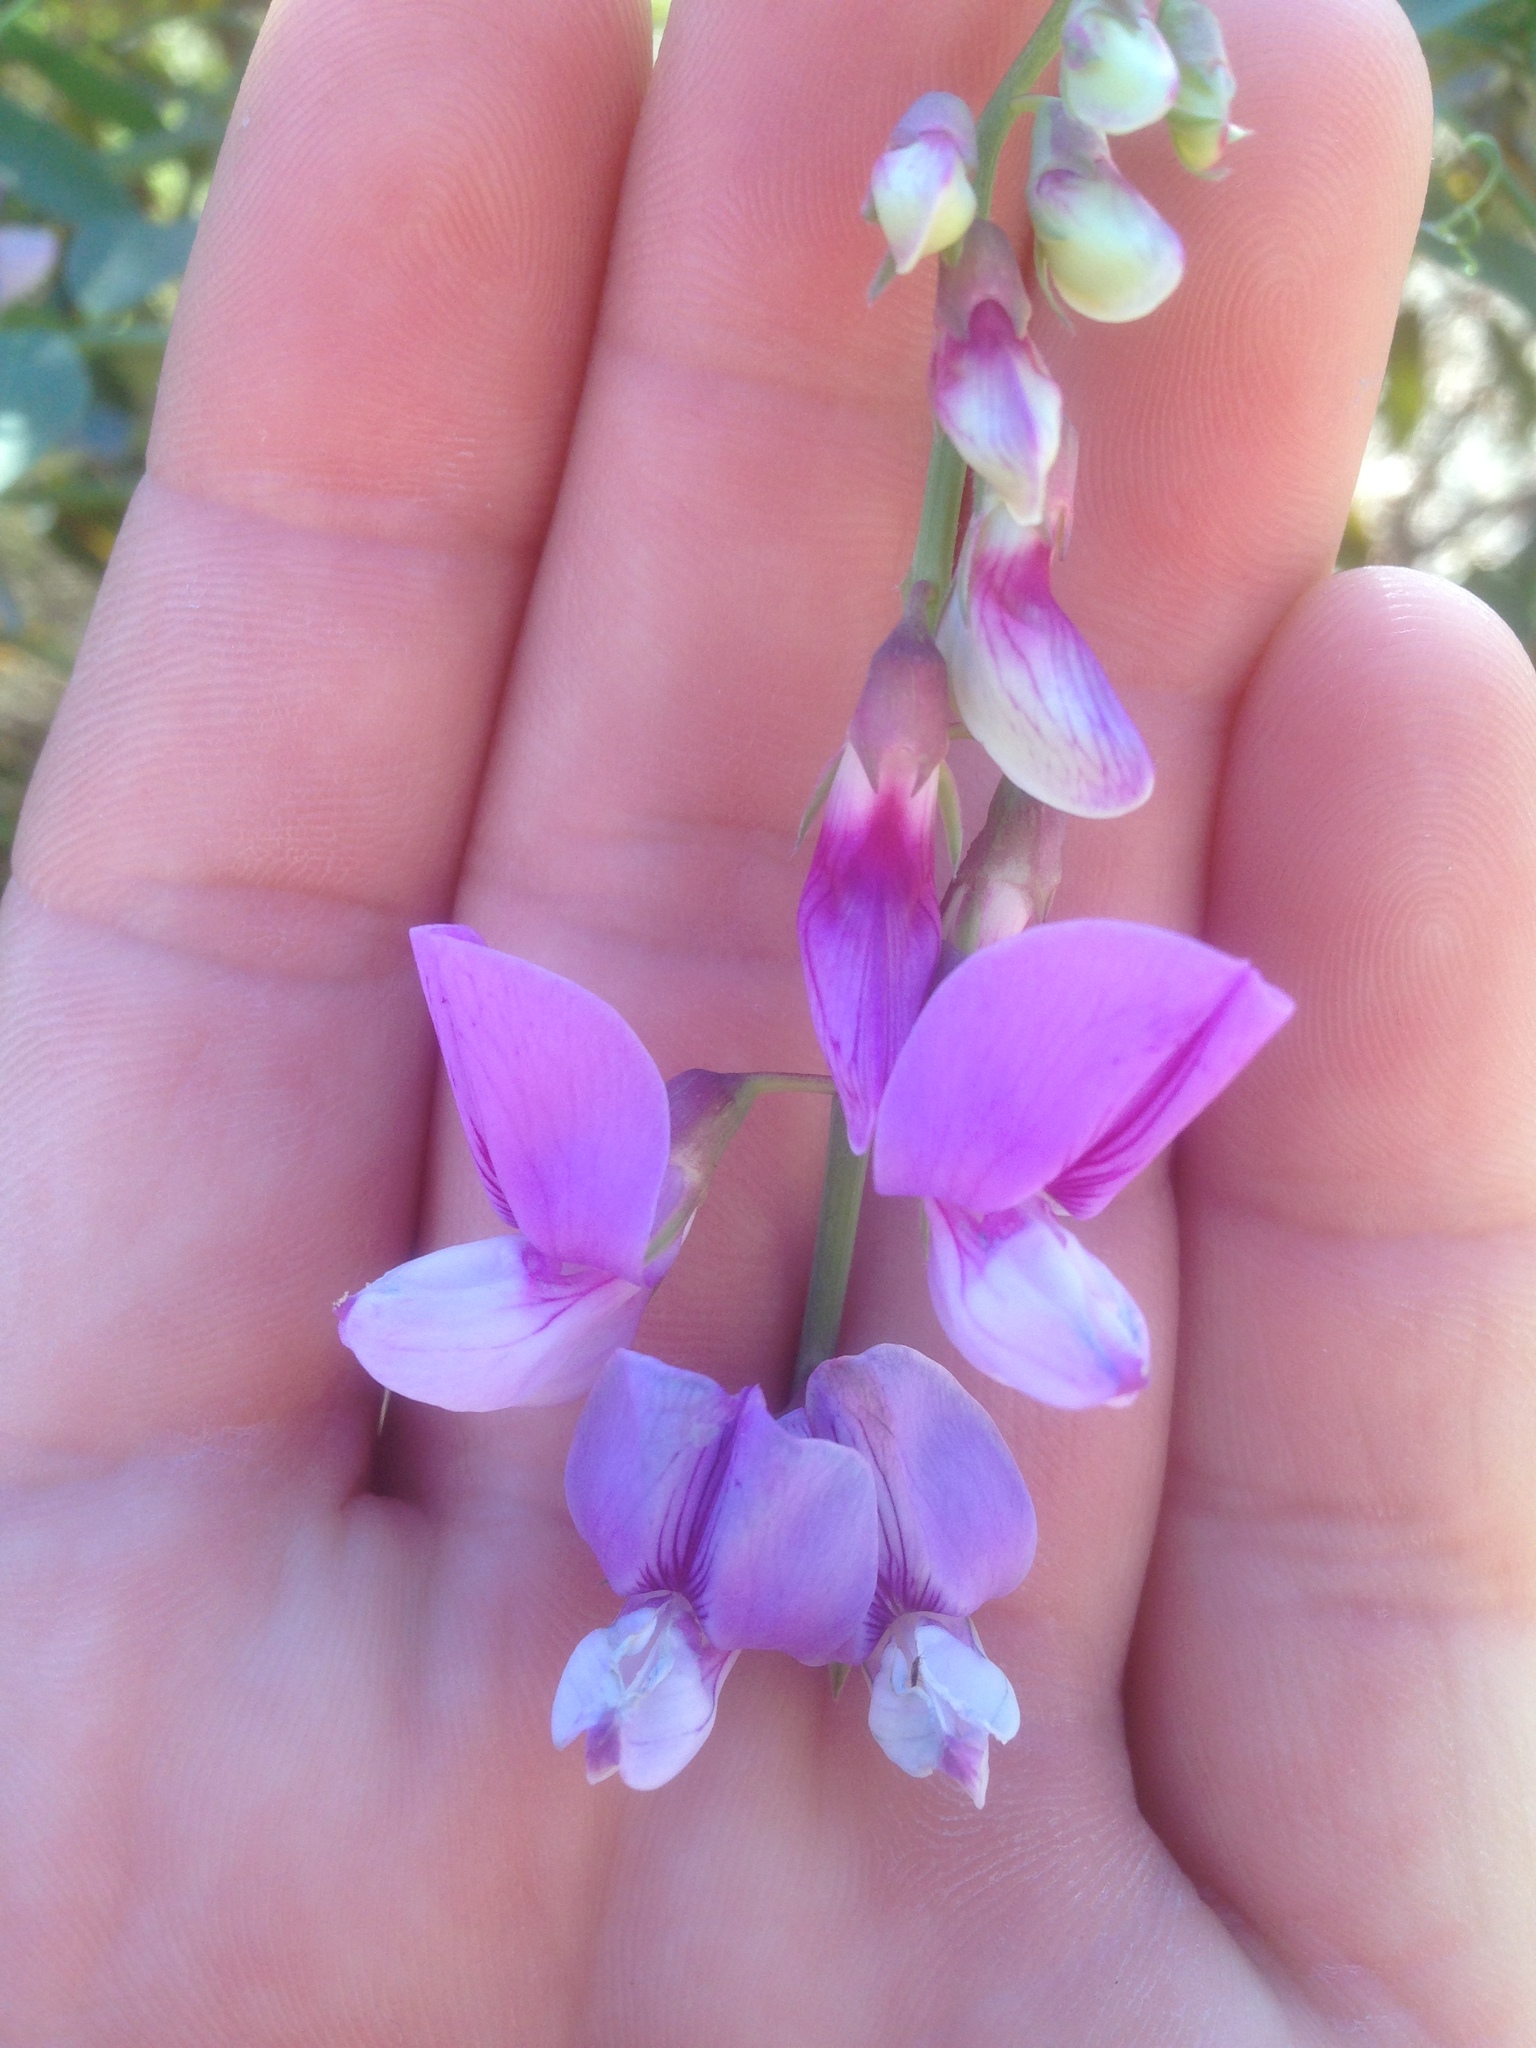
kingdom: Plantae
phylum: Tracheophyta
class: Magnoliopsida
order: Fabales
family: Fabaceae
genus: Lathyrus
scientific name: Lathyrus vestitus
